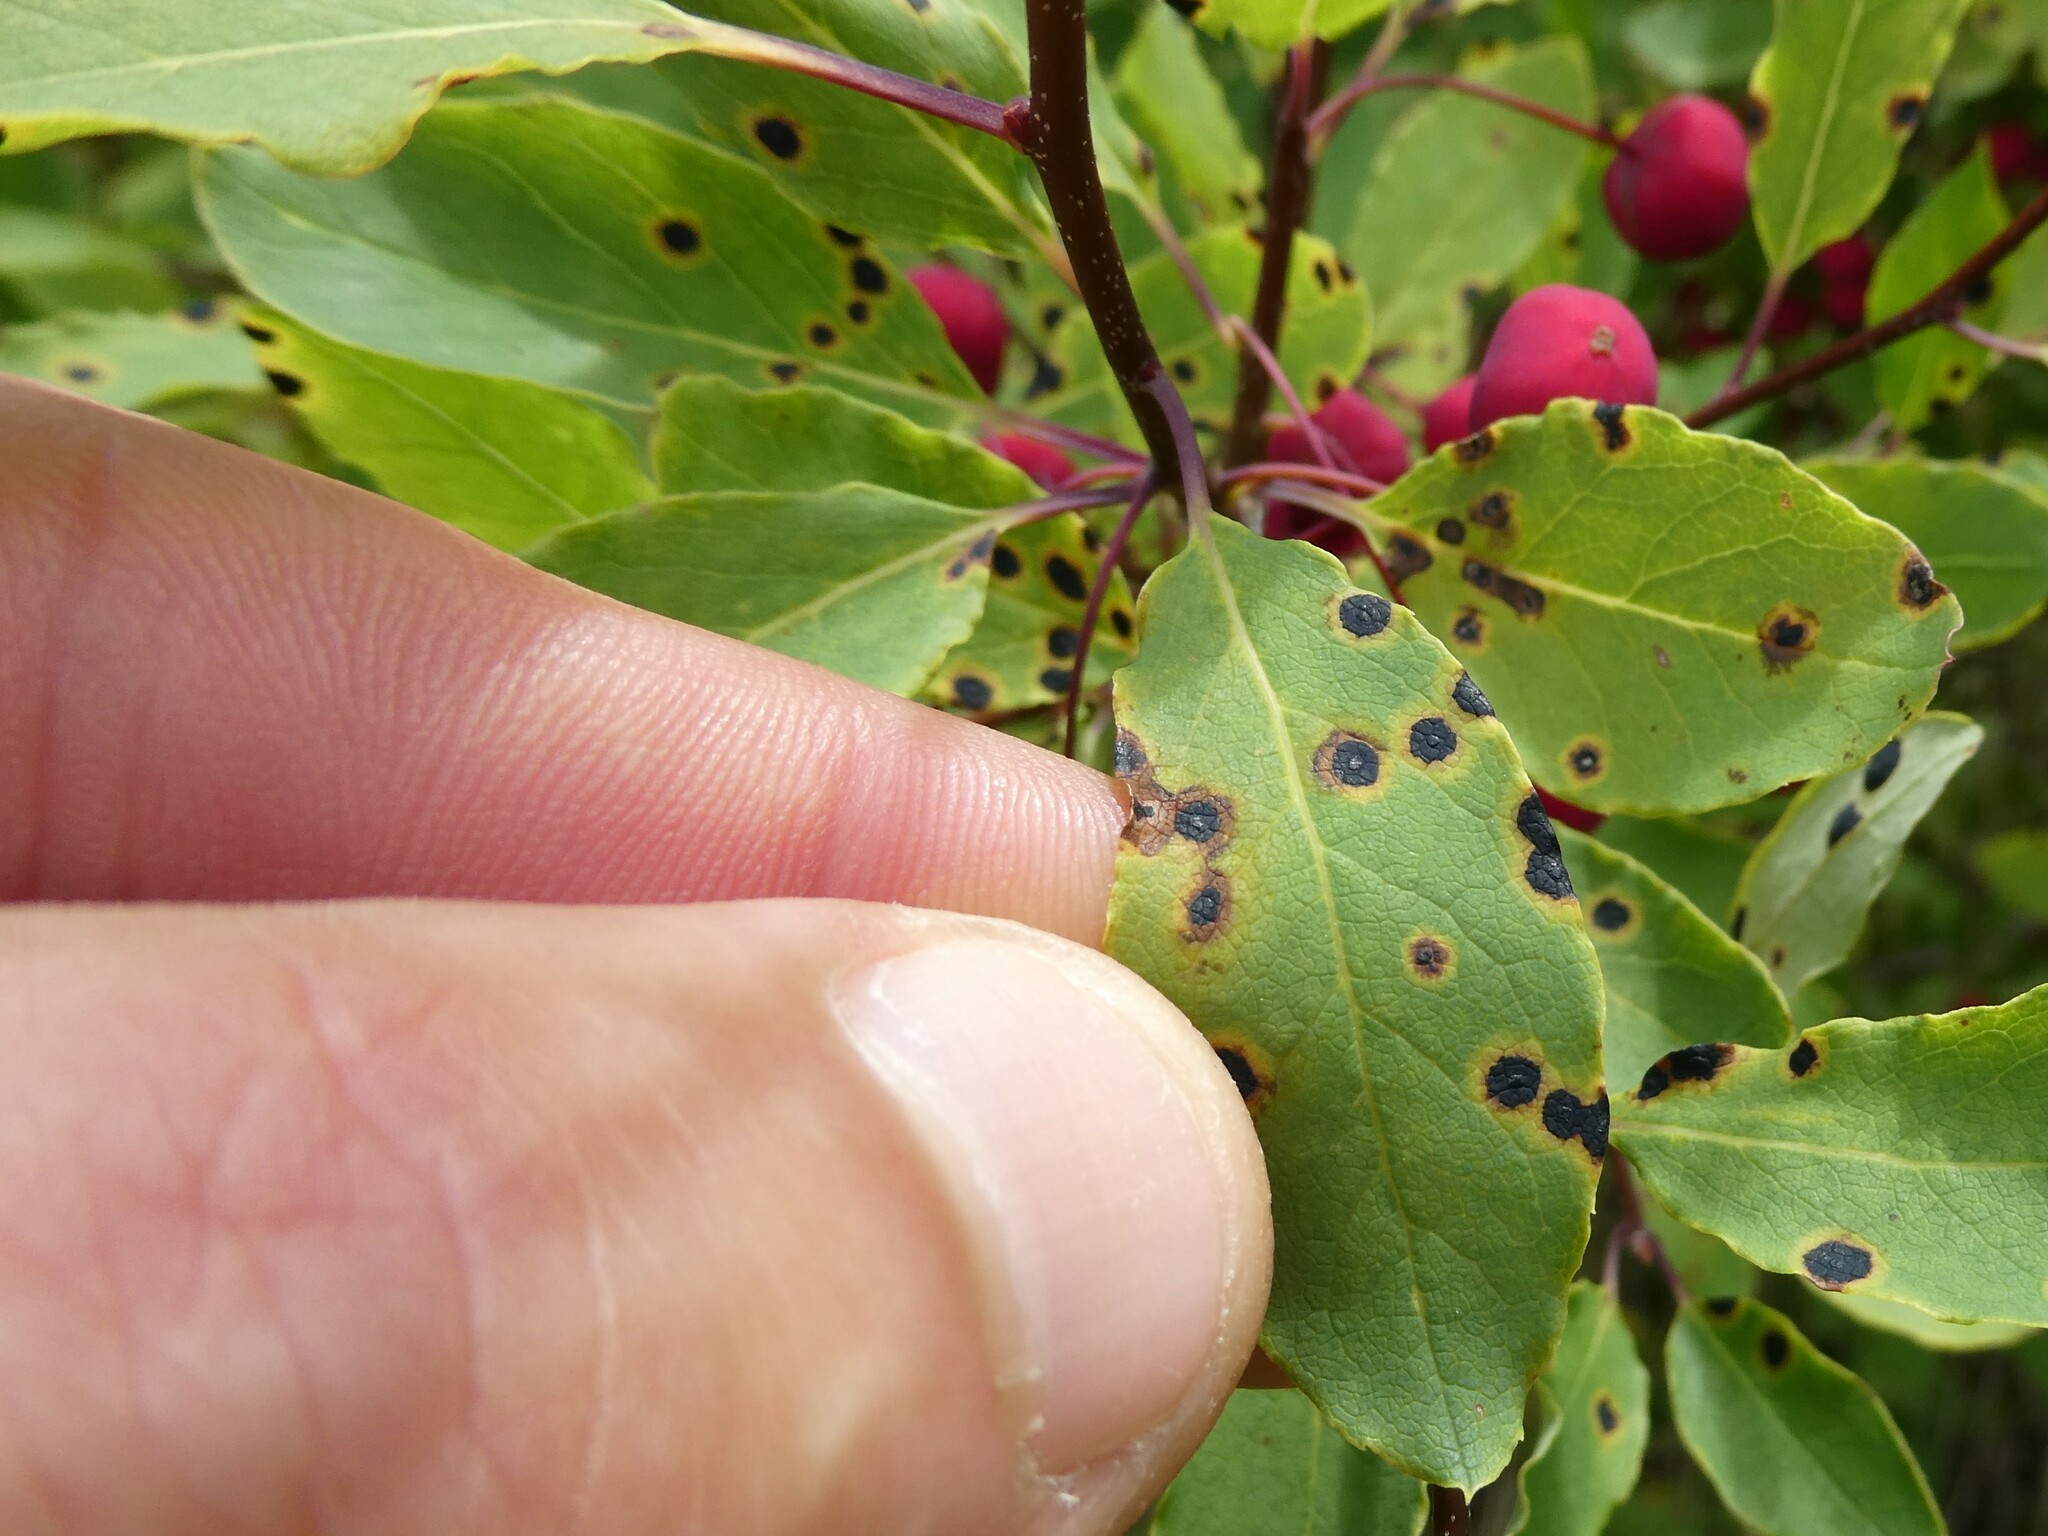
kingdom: Plantae
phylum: Tracheophyta
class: Magnoliopsida
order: Aquifoliales
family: Aquifoliaceae
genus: Ilex
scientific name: Ilex mucronata
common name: Catberry
